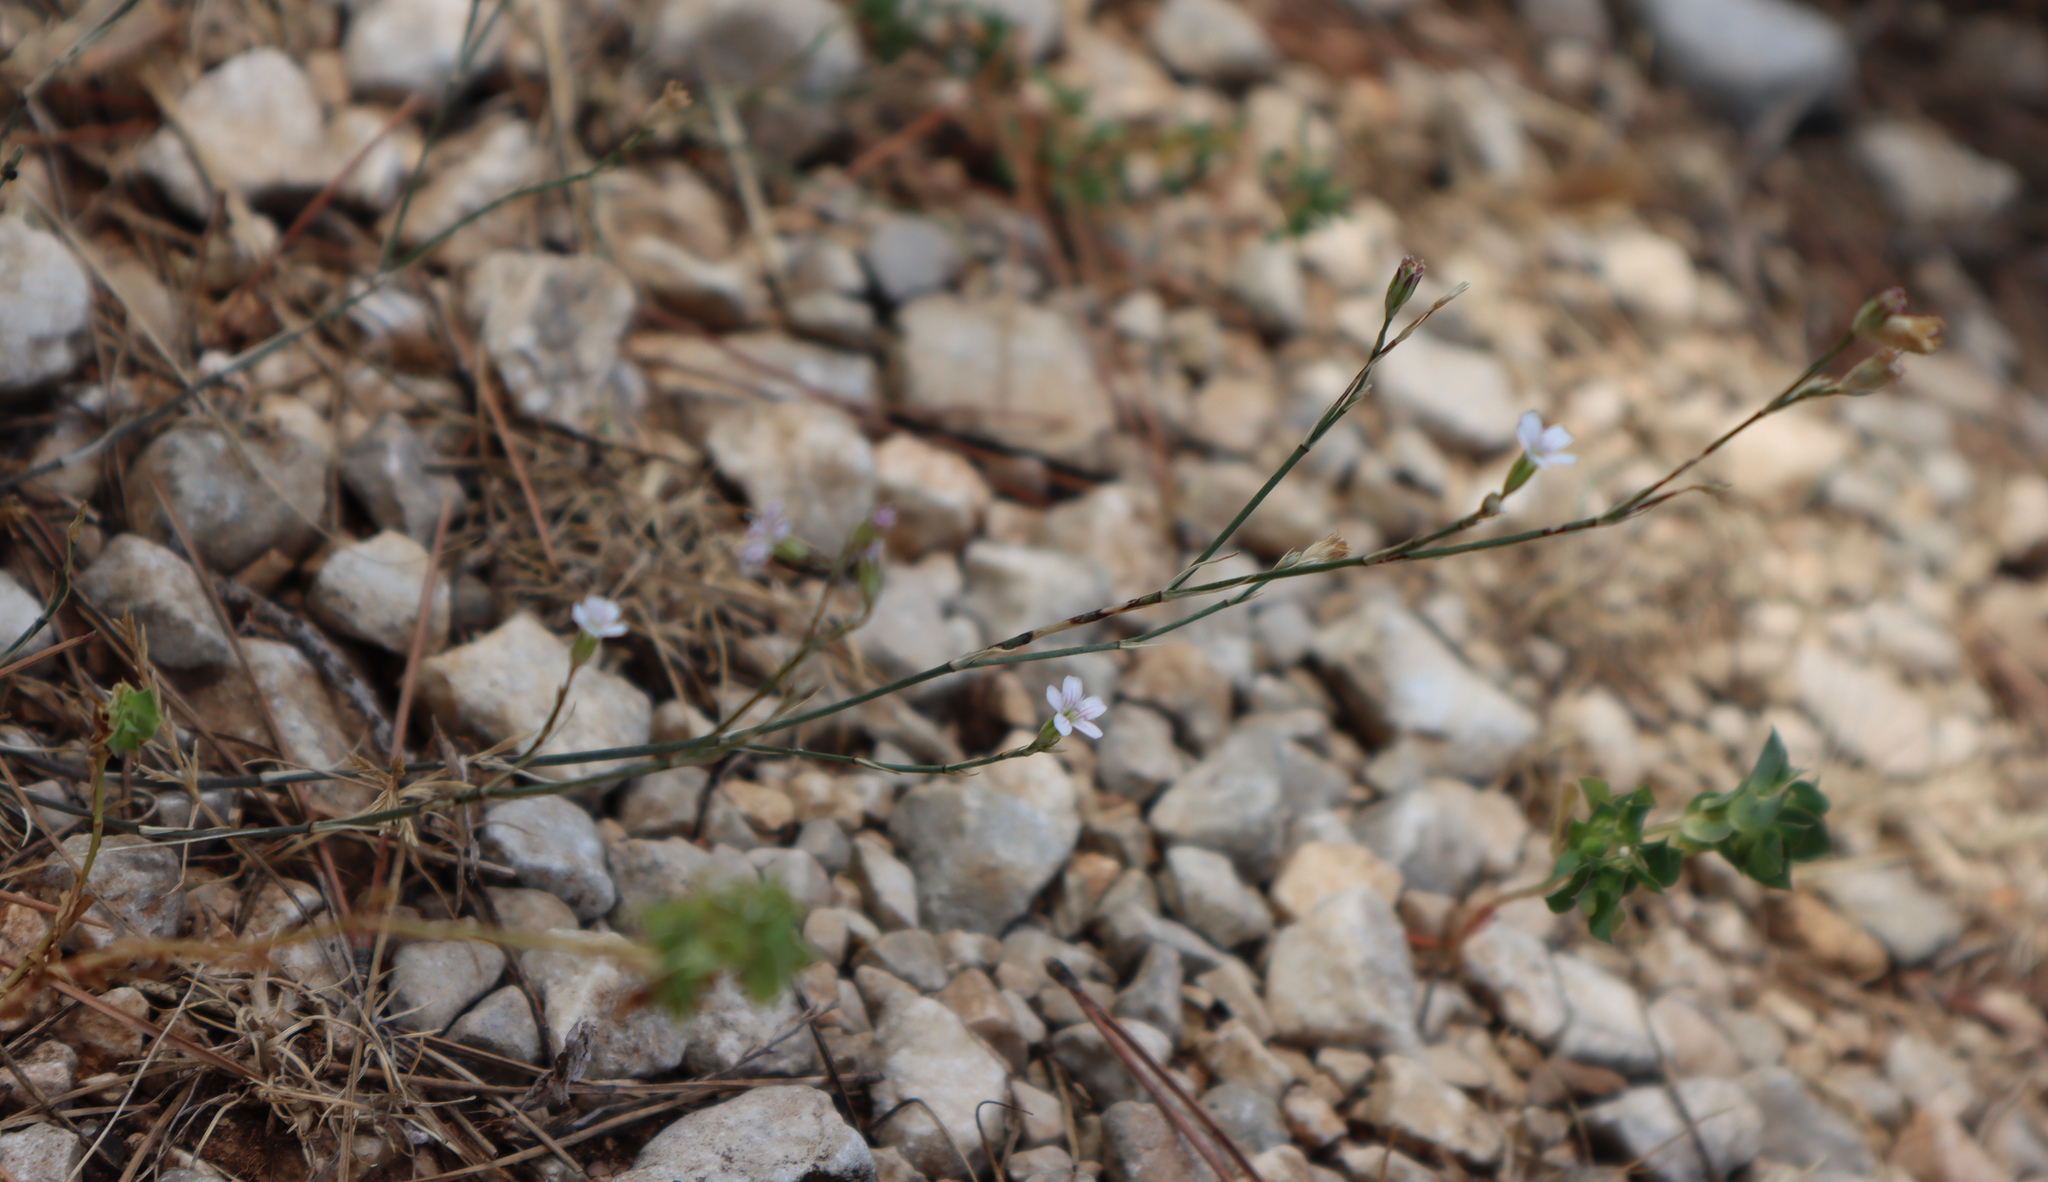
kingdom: Plantae
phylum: Tracheophyta
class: Magnoliopsida
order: Caryophyllales
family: Caryophyllaceae
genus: Petrorhagia
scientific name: Petrorhagia saxifraga
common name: Tunicflower
